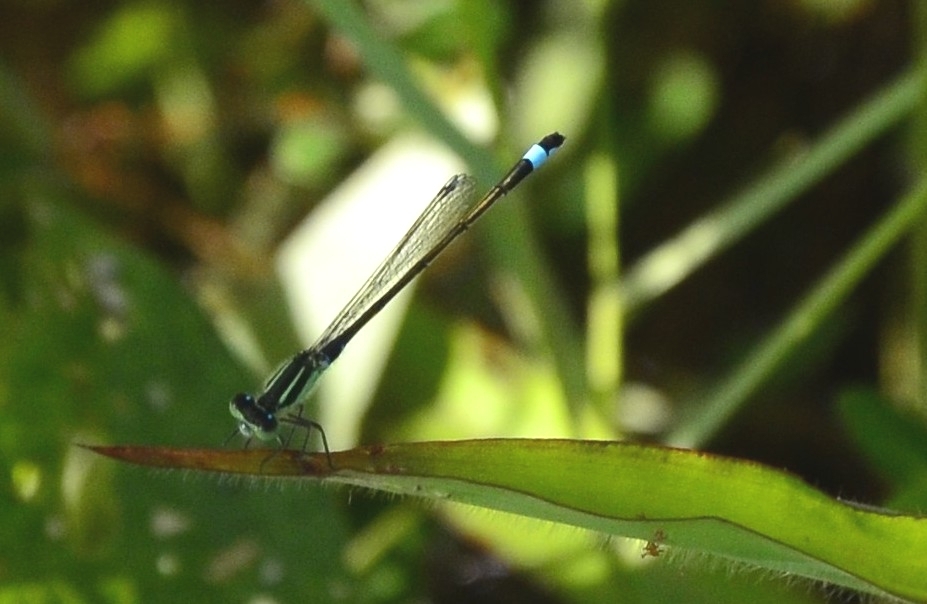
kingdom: Animalia
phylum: Arthropoda
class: Insecta
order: Odonata
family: Coenagrionidae
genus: Ischnura
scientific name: Ischnura senegalensis
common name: Tropical bluetail
